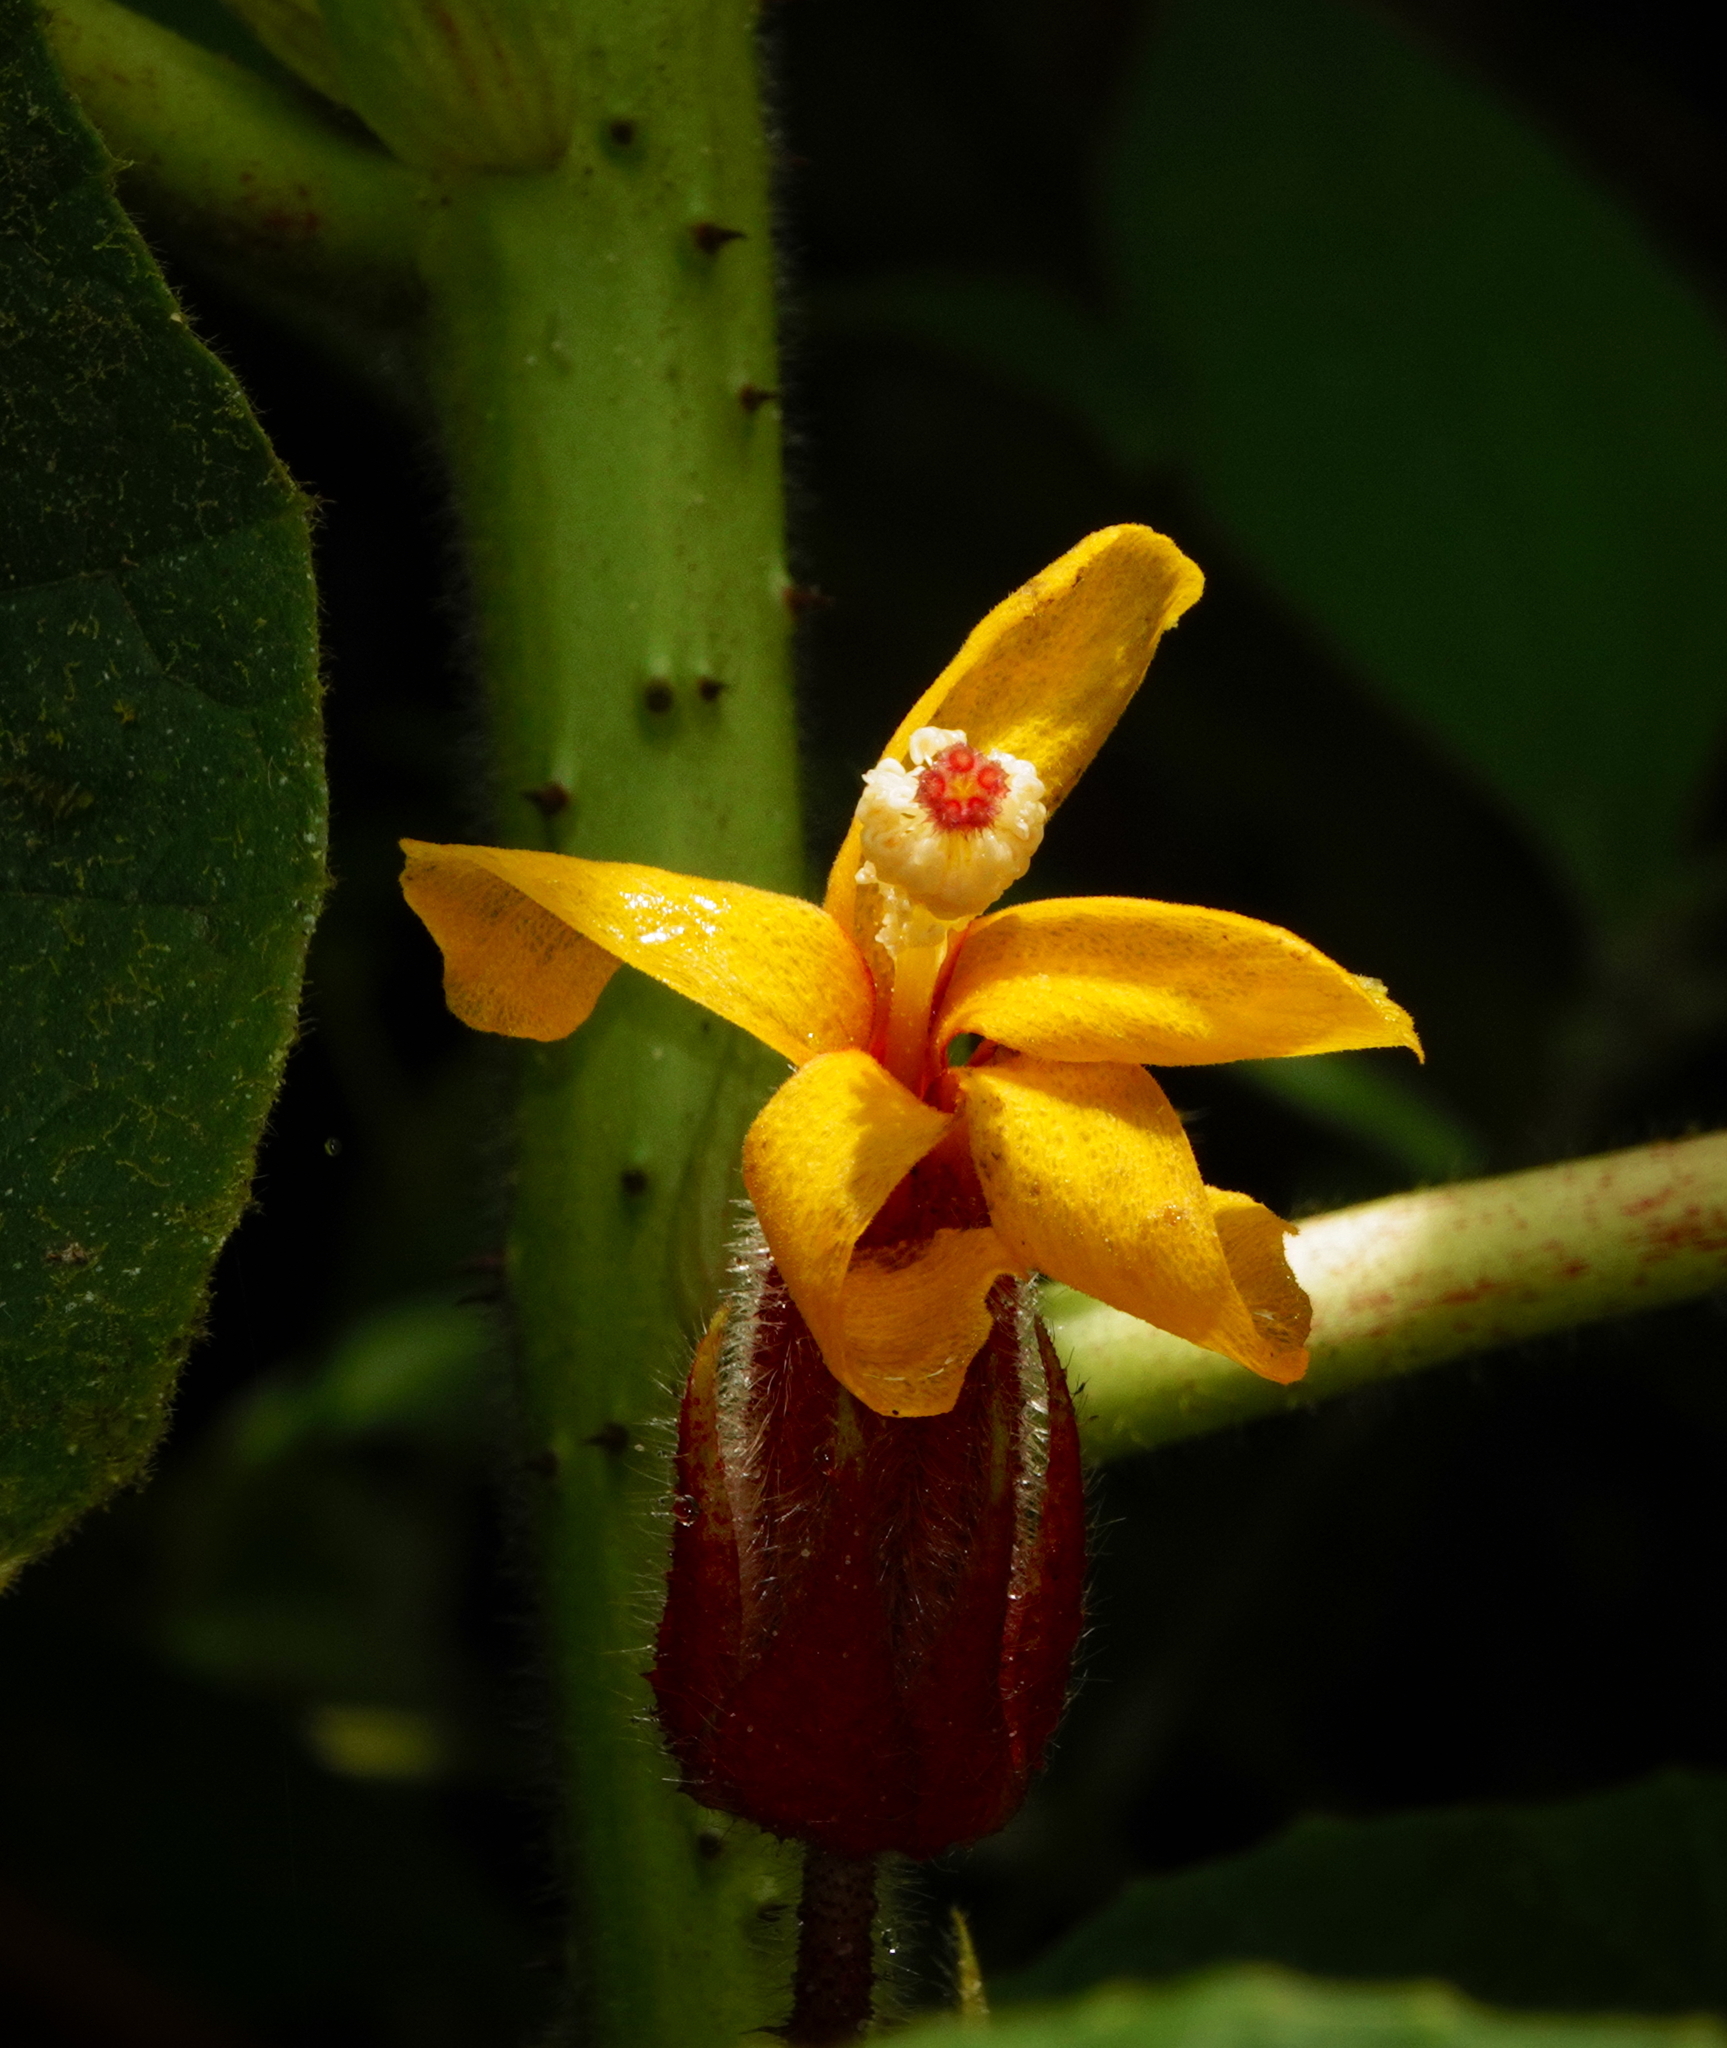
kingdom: Plantae
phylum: Tracheophyta
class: Magnoliopsida
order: Malvales
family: Malvaceae
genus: Wercklea
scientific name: Wercklea ferox
